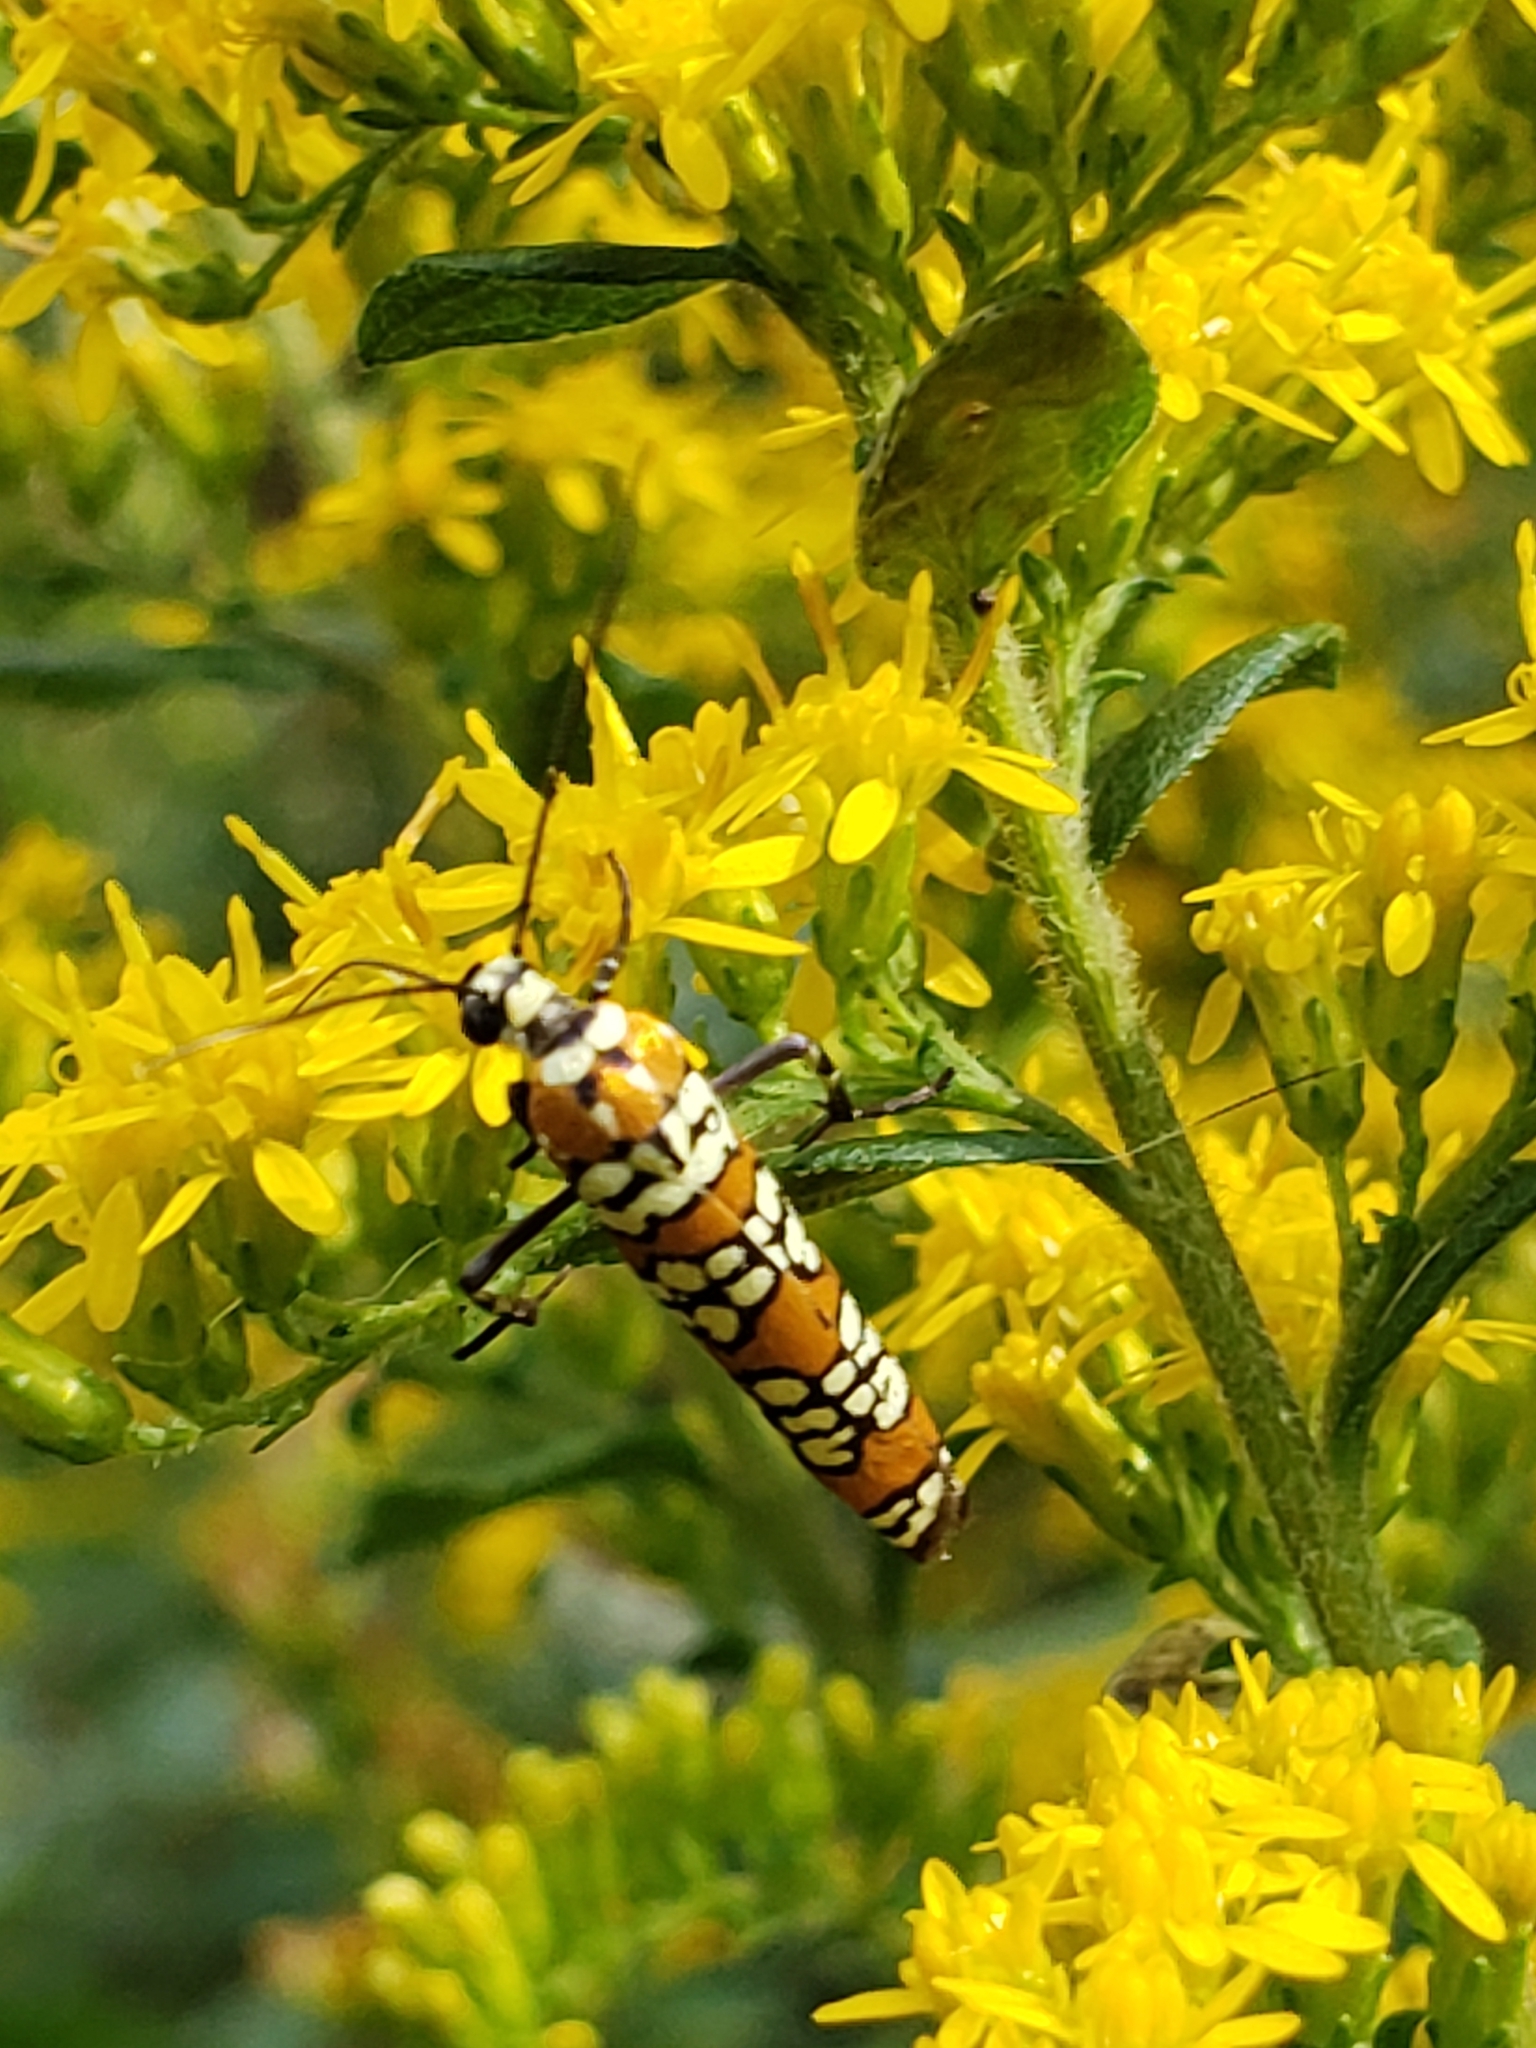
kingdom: Animalia
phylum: Arthropoda
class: Insecta
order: Lepidoptera
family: Attevidae
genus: Atteva
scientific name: Atteva punctella
